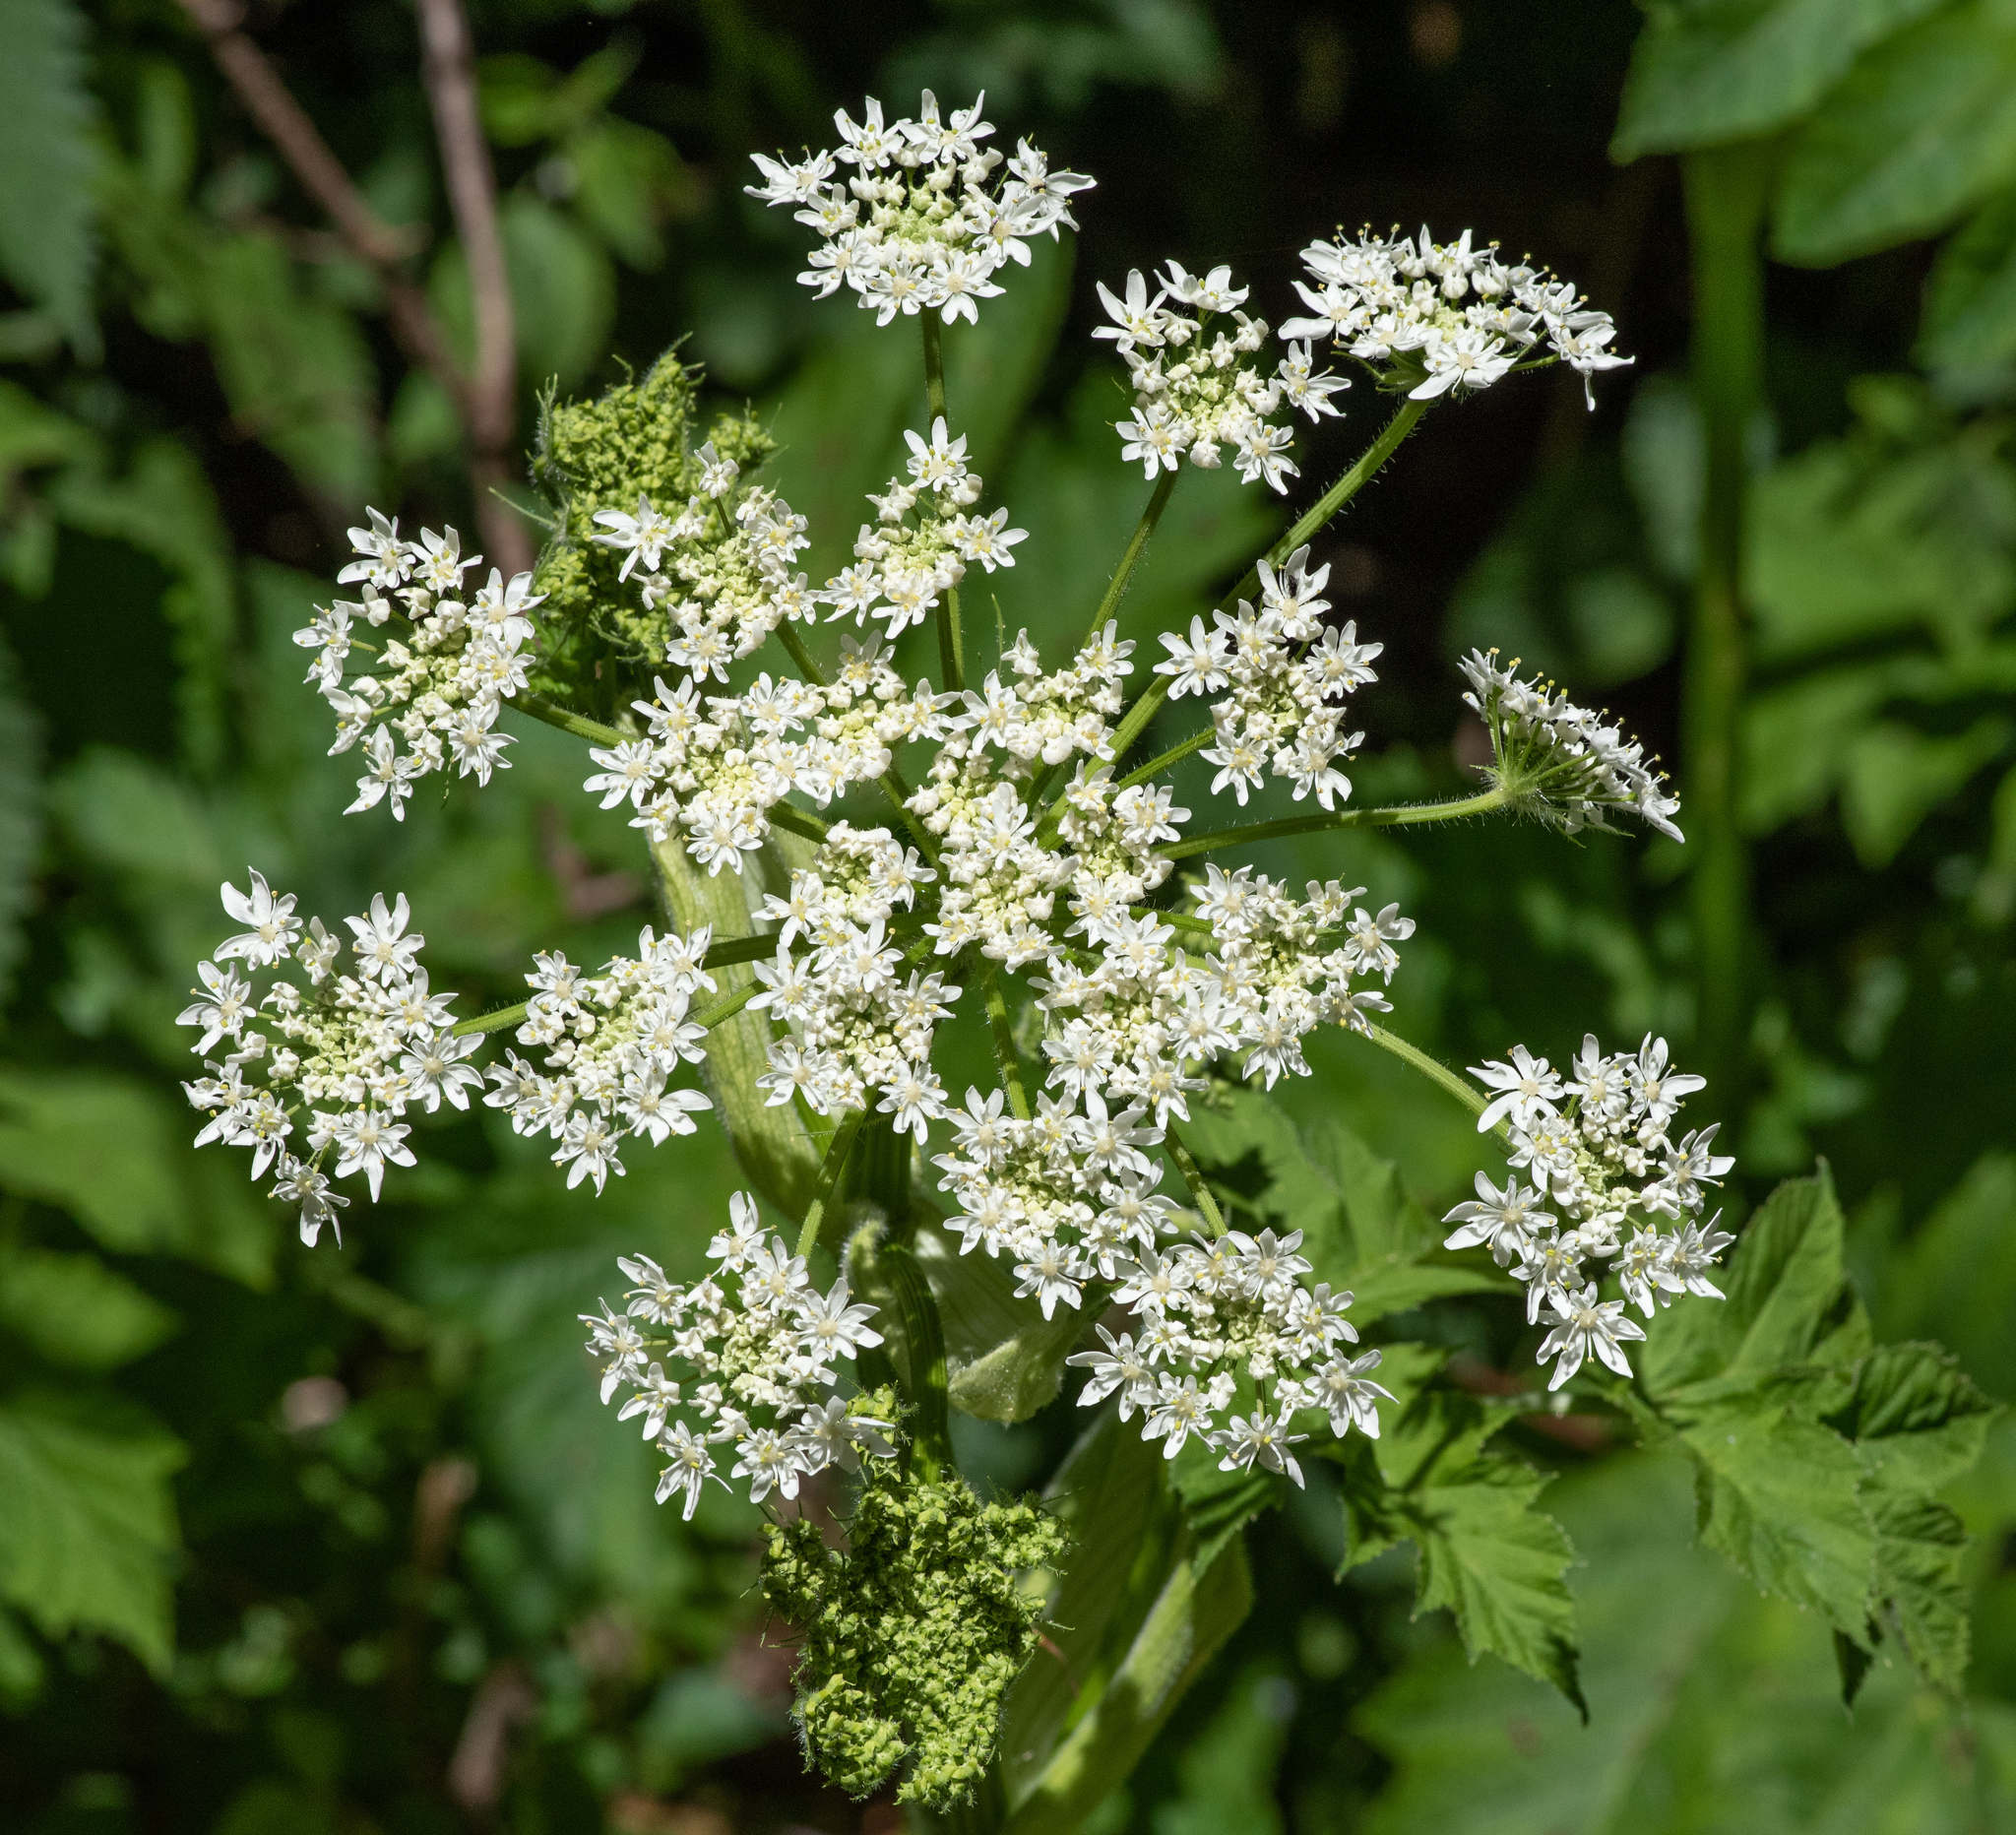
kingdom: Plantae
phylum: Tracheophyta
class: Magnoliopsida
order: Apiales
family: Apiaceae
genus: Heracleum
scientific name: Heracleum maximum
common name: American cow parsnip
